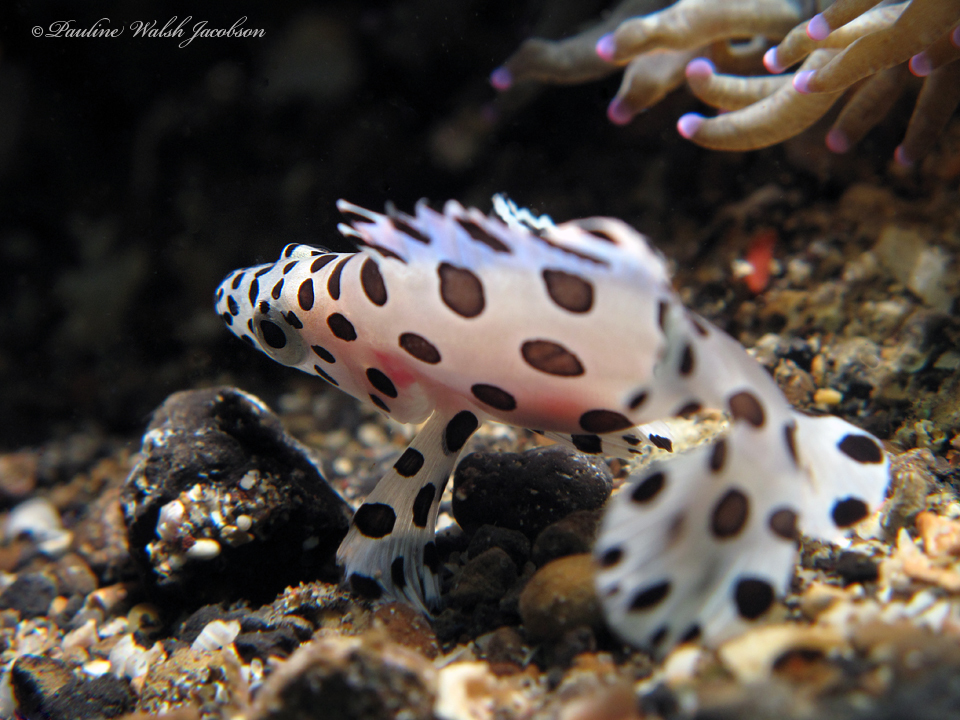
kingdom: Animalia
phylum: Chordata
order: Perciformes
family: Serranidae
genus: Cromileptes
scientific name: Cromileptes altivelis
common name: Humpback grouper
